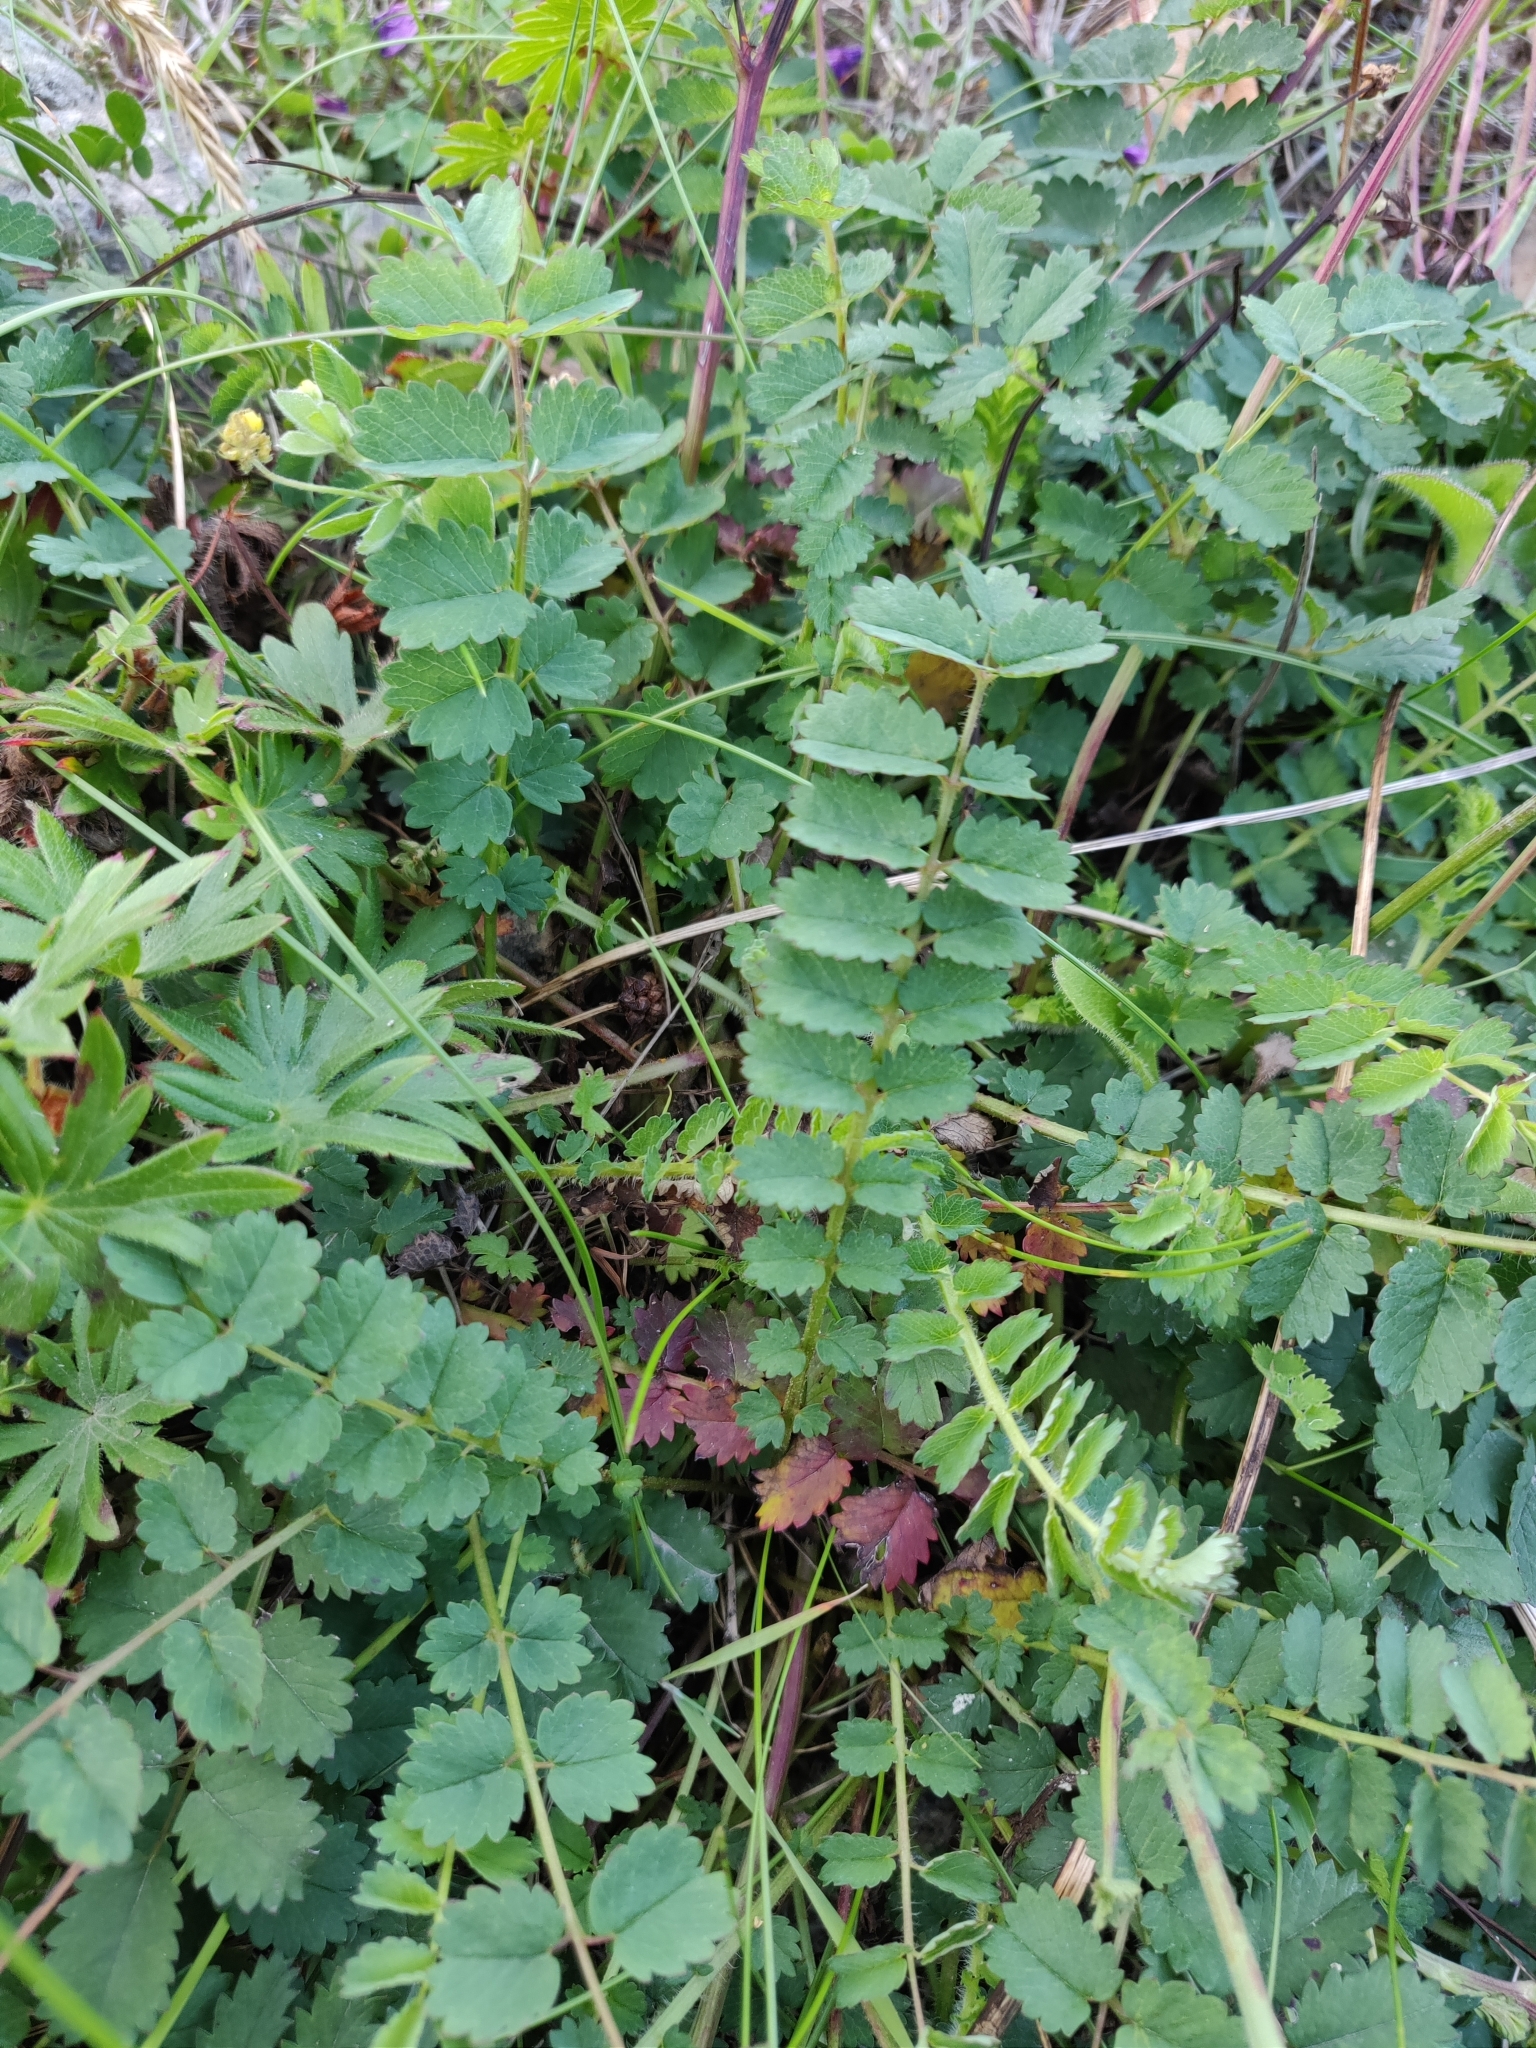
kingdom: Plantae
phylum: Tracheophyta
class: Magnoliopsida
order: Rosales
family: Rosaceae
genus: Poterium
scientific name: Poterium sanguisorba
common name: Salad burnet
